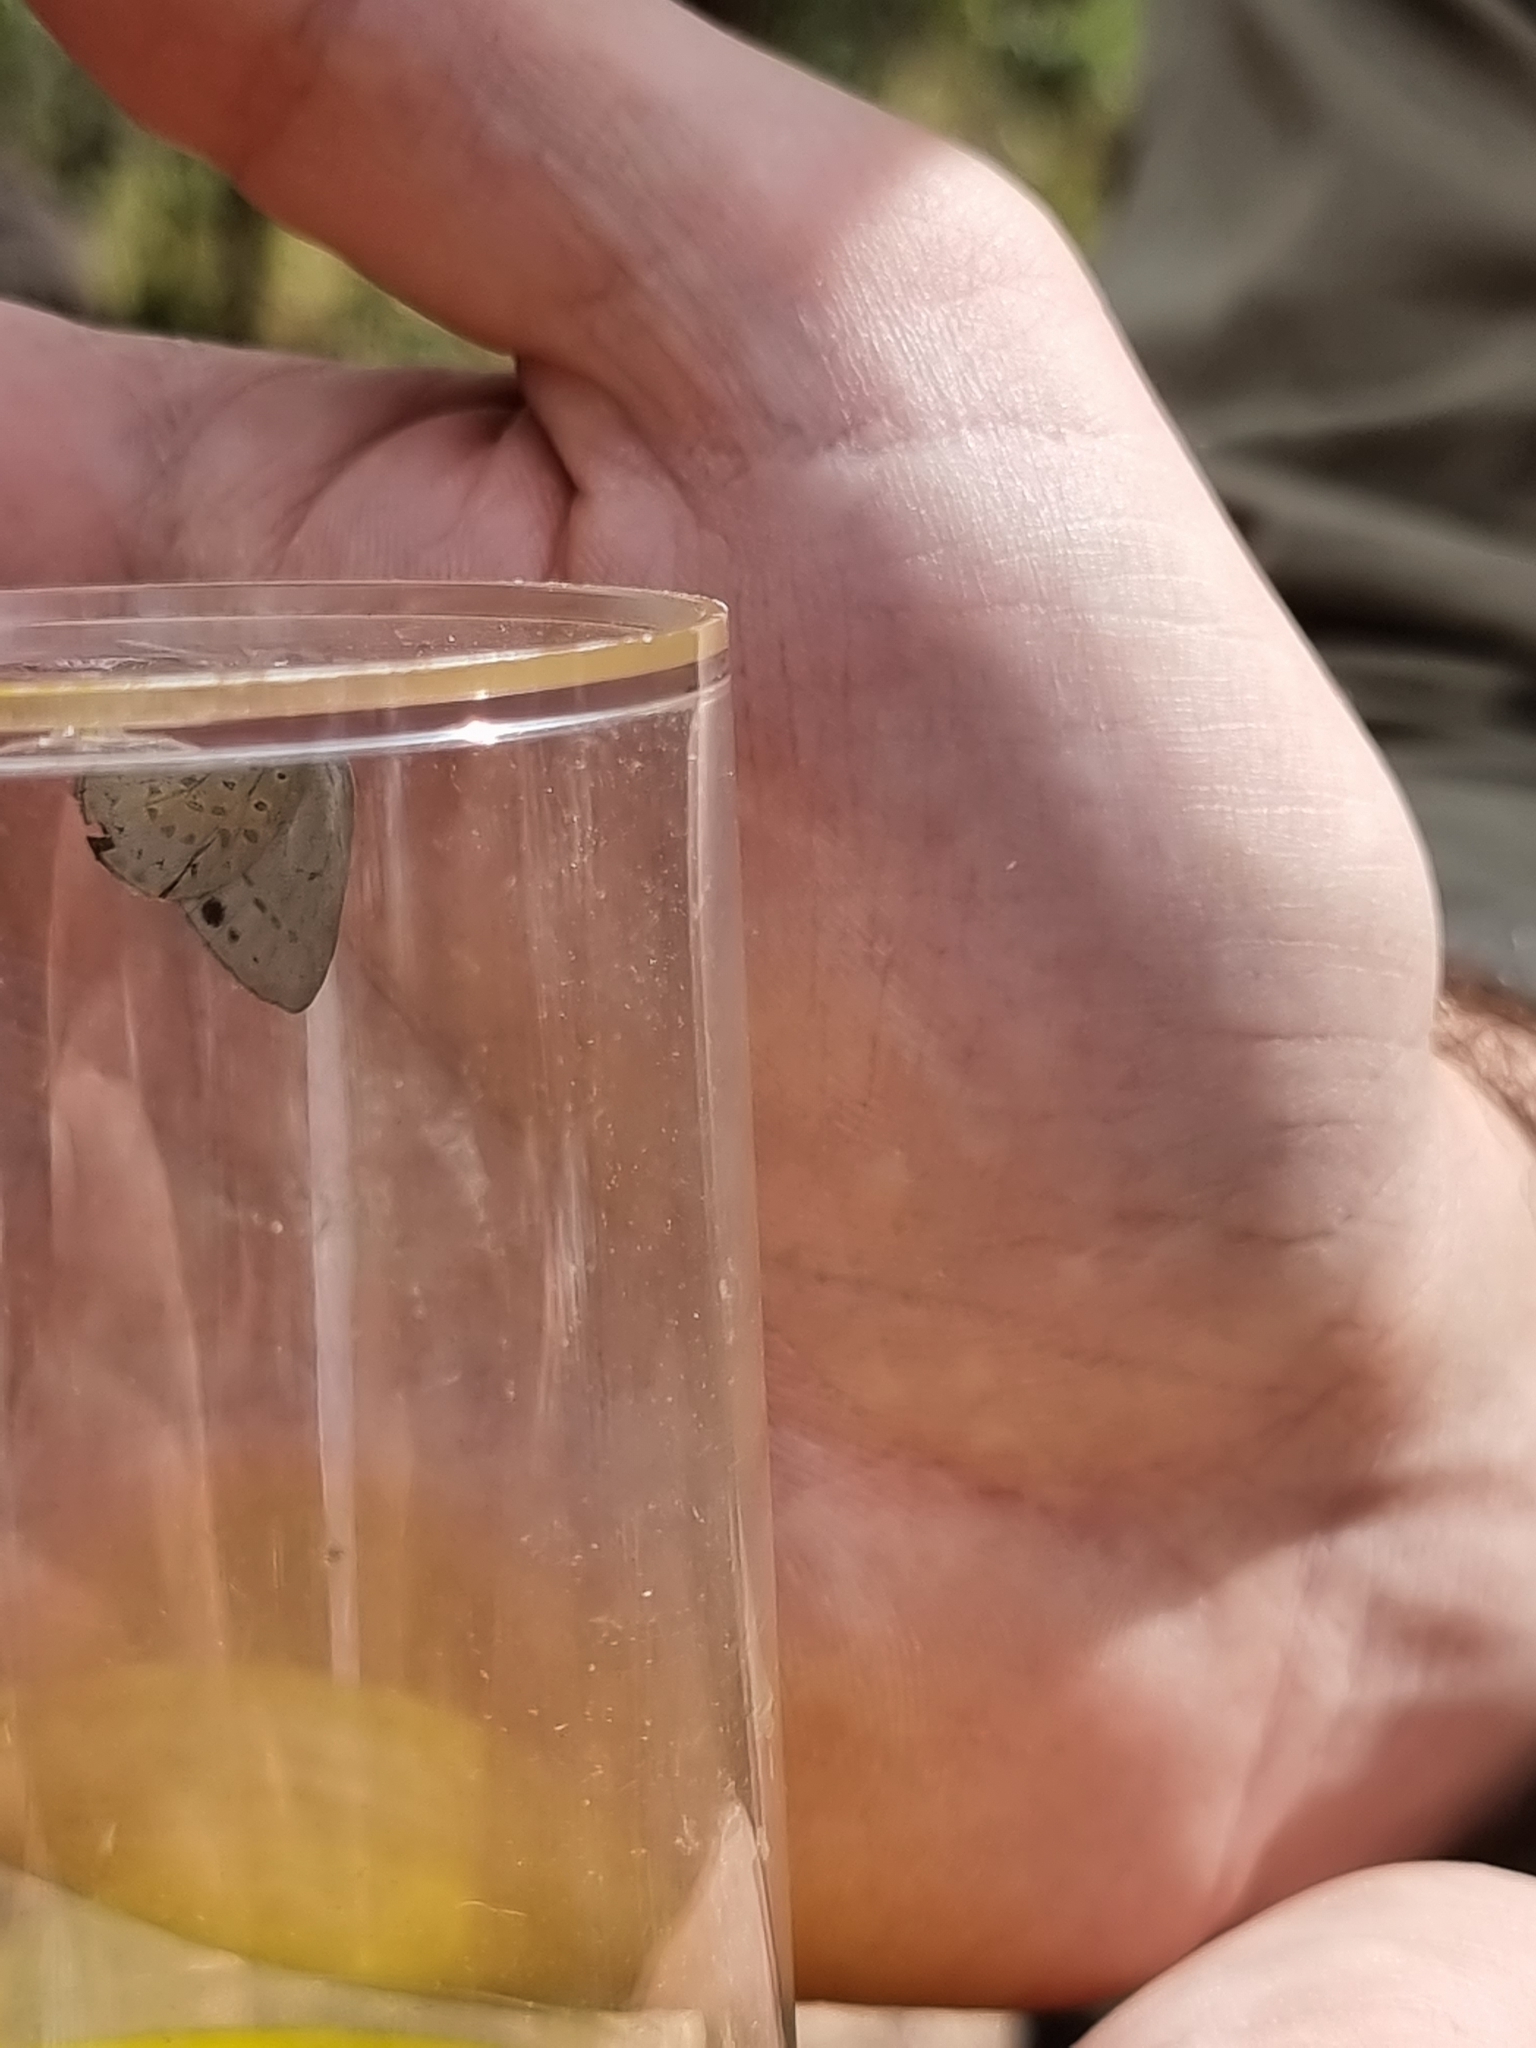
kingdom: Animalia
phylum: Arthropoda
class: Insecta
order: Lepidoptera
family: Lycaenidae
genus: Candalides
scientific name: Candalides
